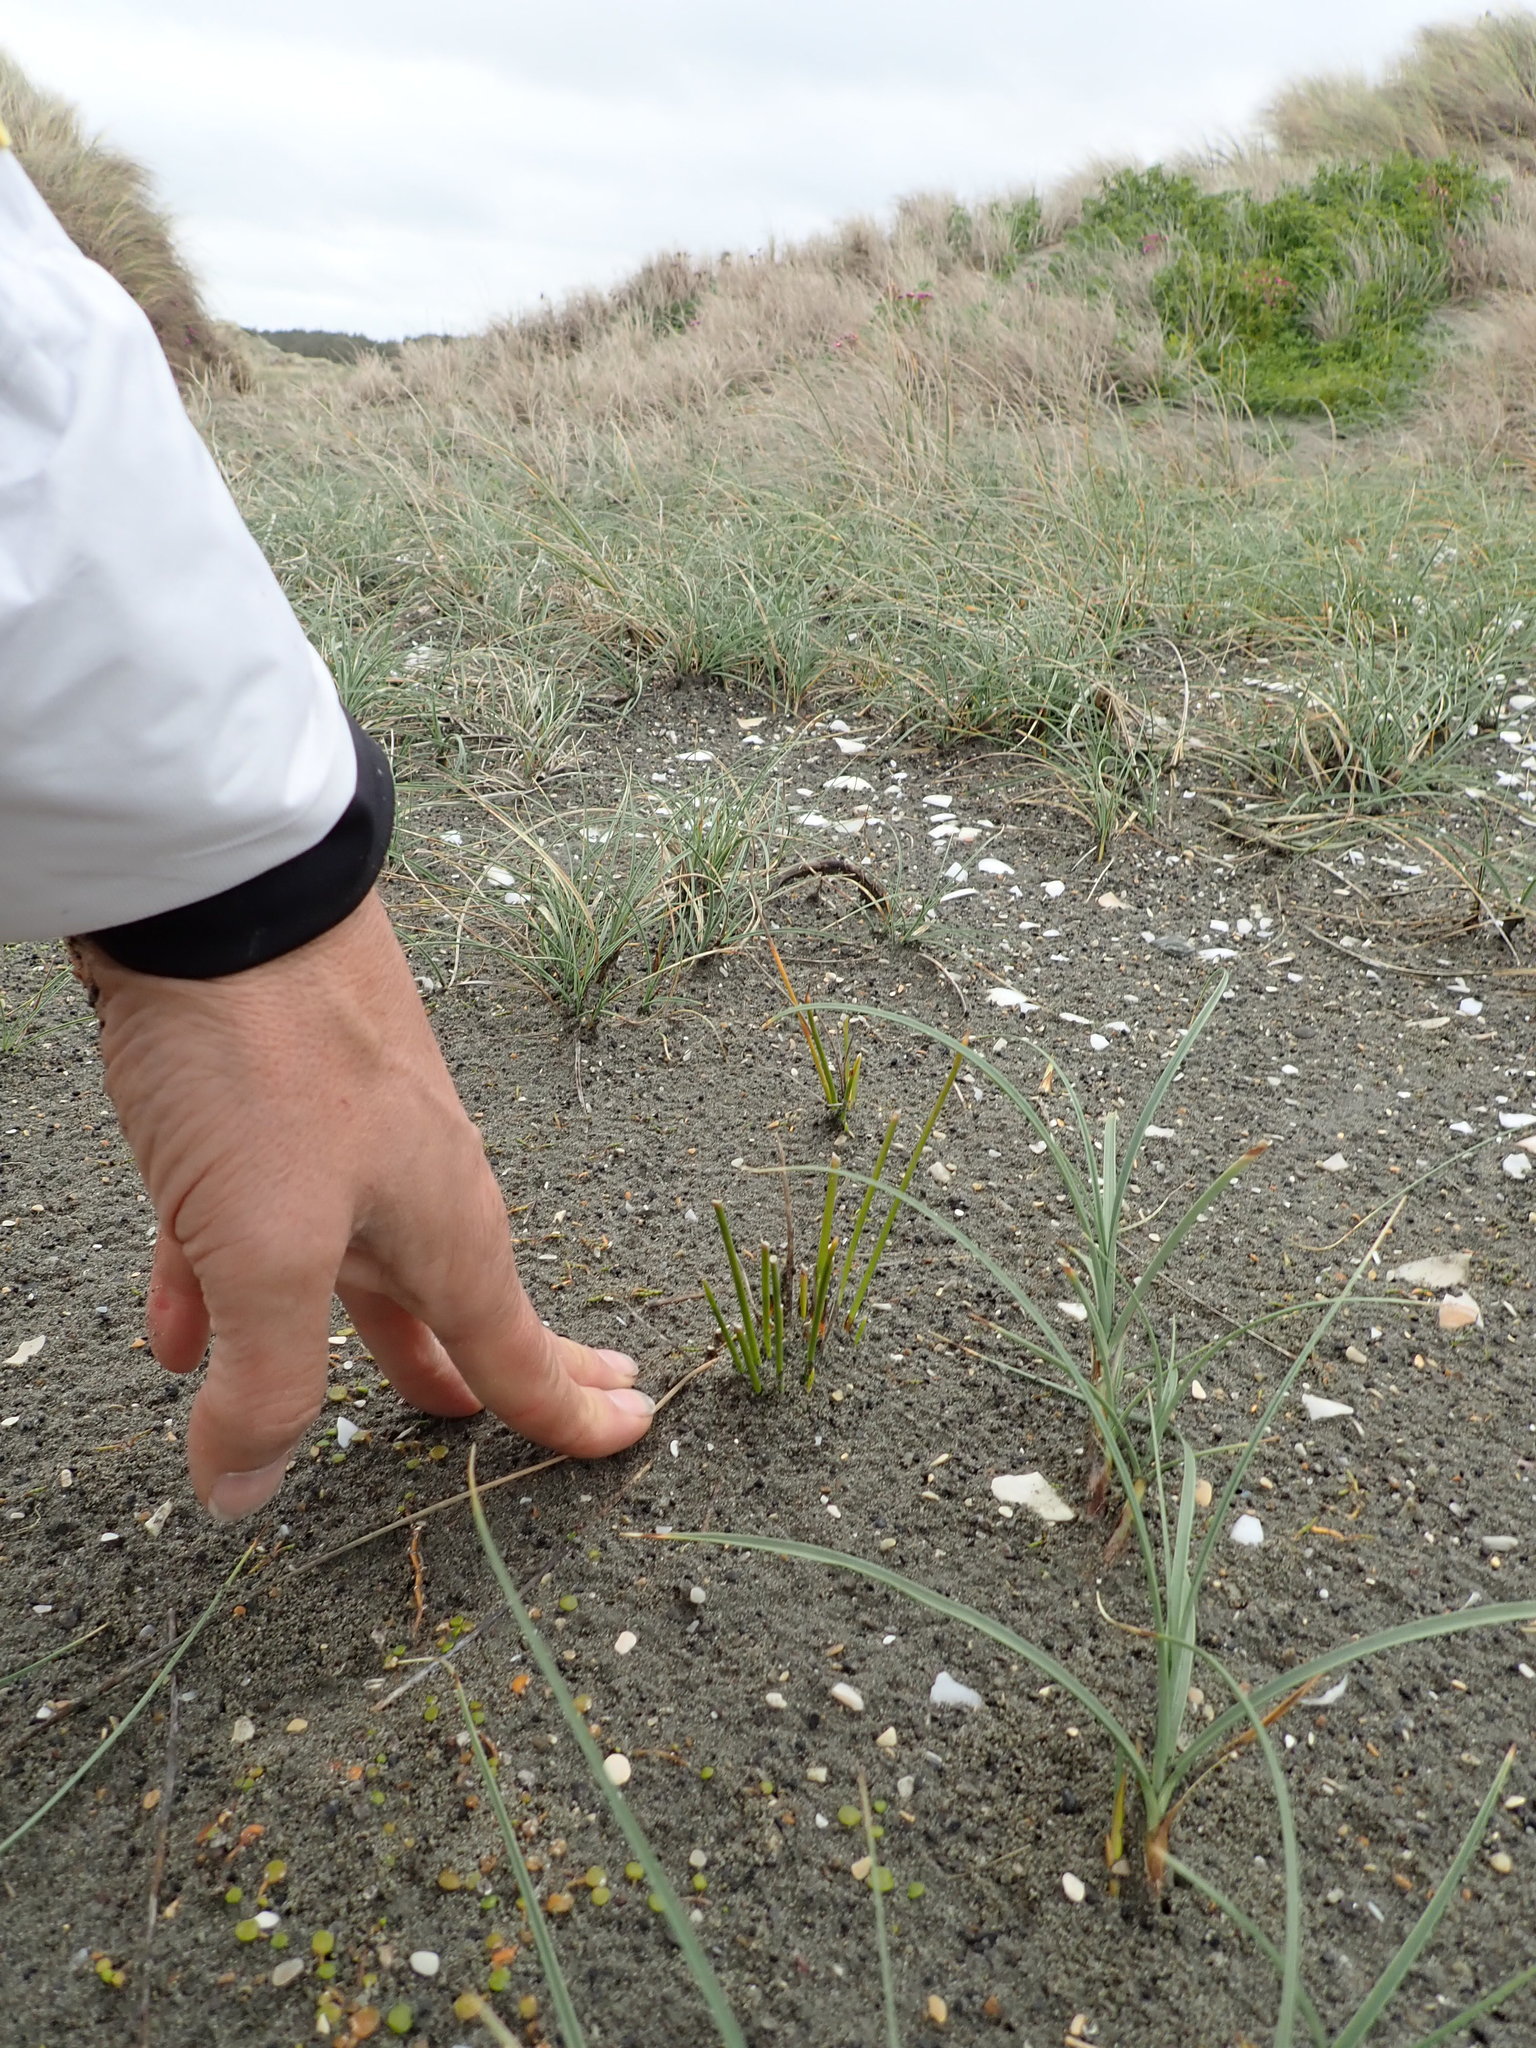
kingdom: Plantae
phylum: Tracheophyta
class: Liliopsida
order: Poales
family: Cyperaceae
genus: Ficinia
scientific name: Ficinia nodosa
